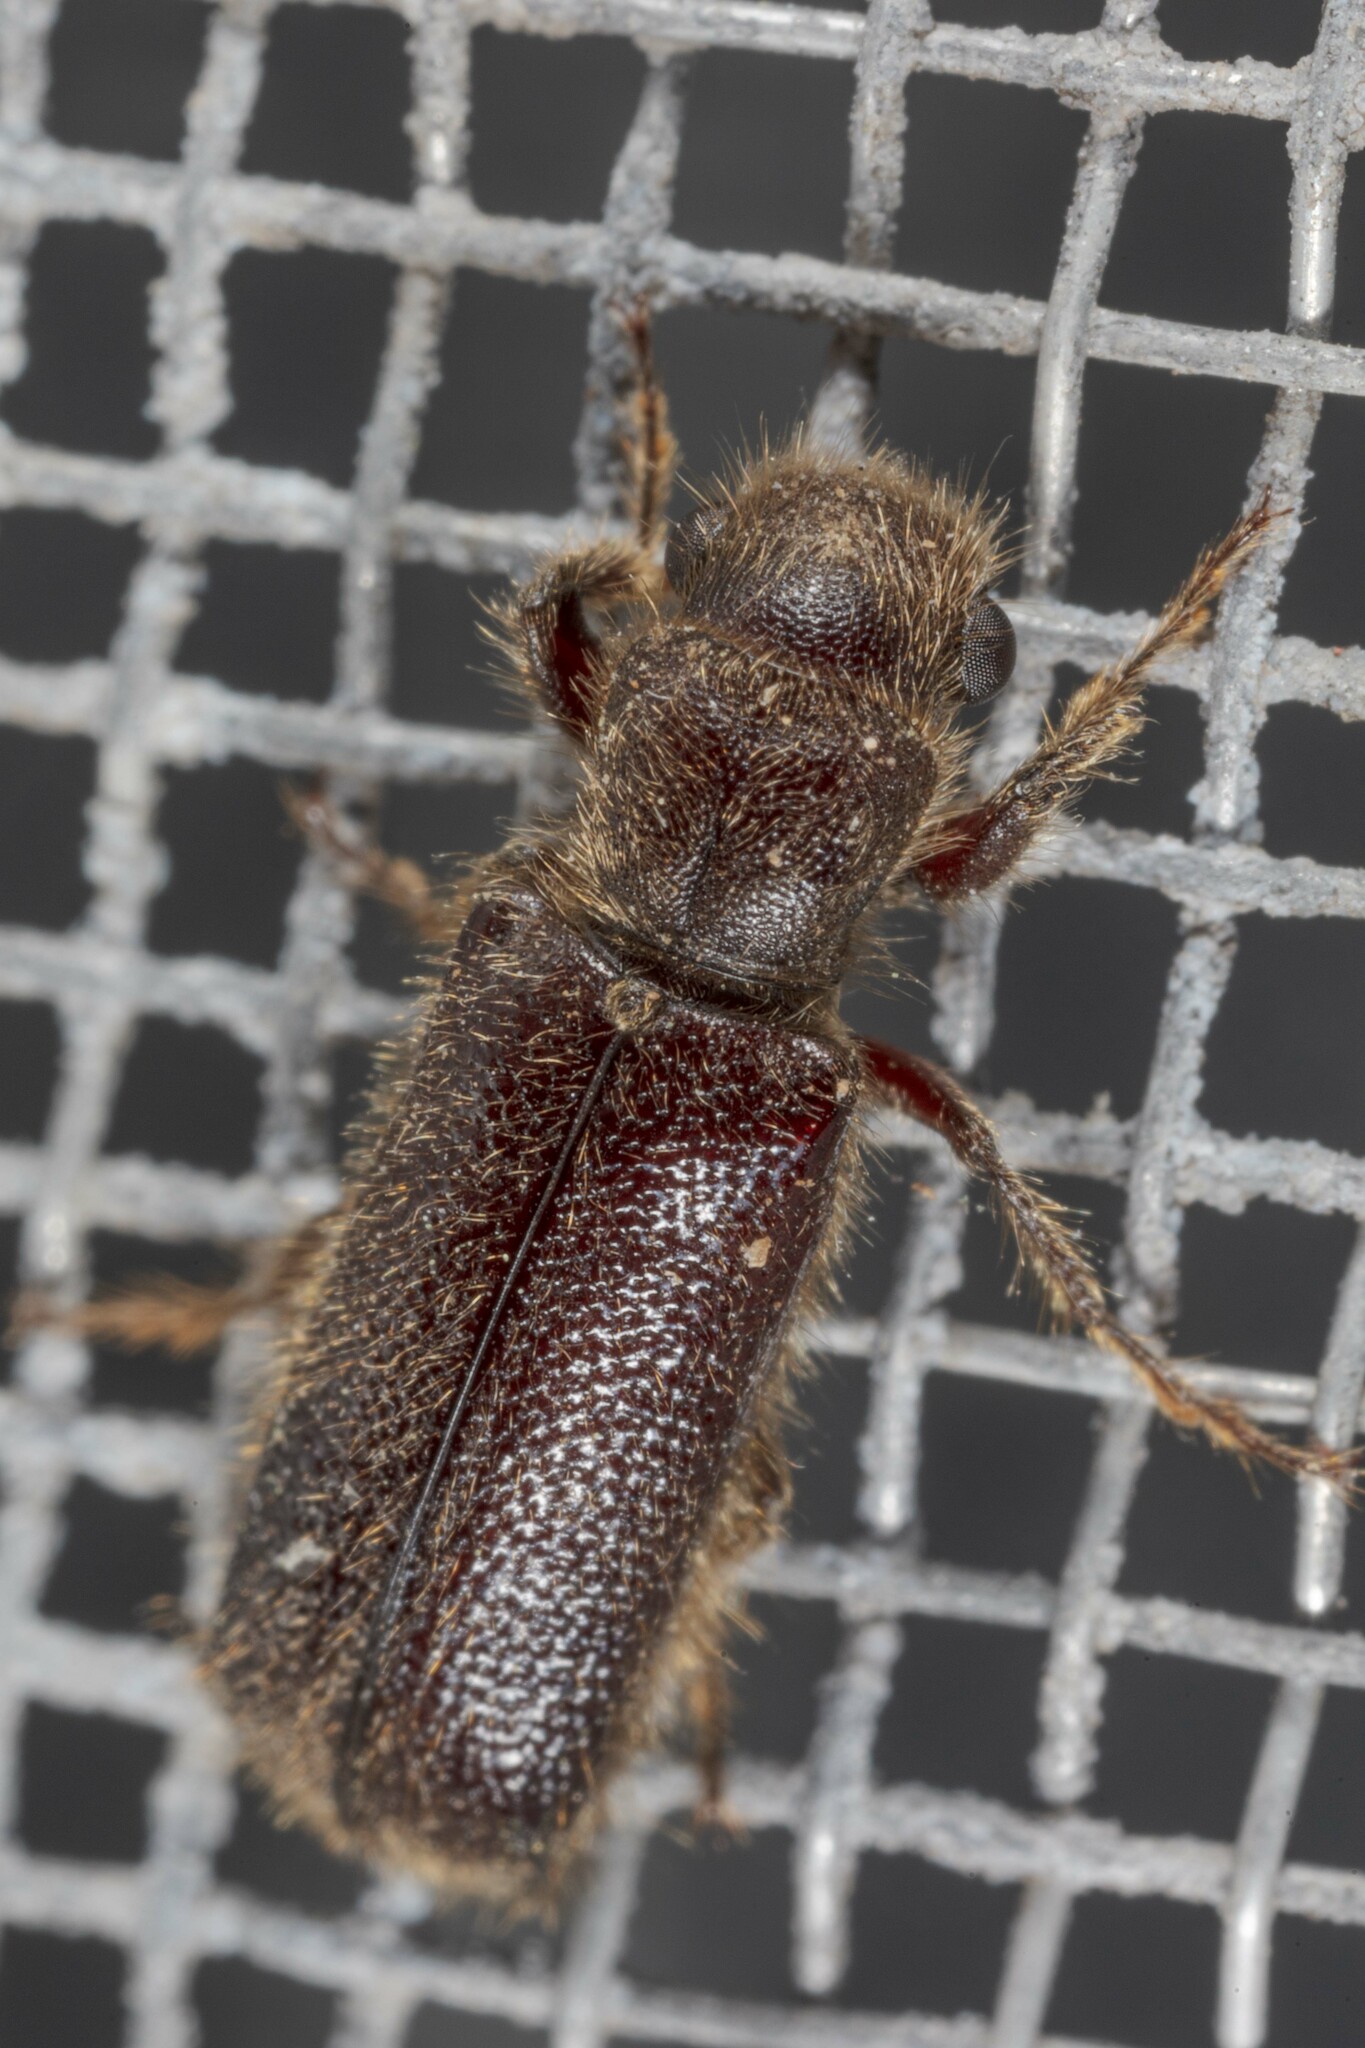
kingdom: Animalia
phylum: Arthropoda
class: Insecta
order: Coleoptera
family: Bostrichidae
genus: Melalgus
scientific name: Melalgus plicatus
